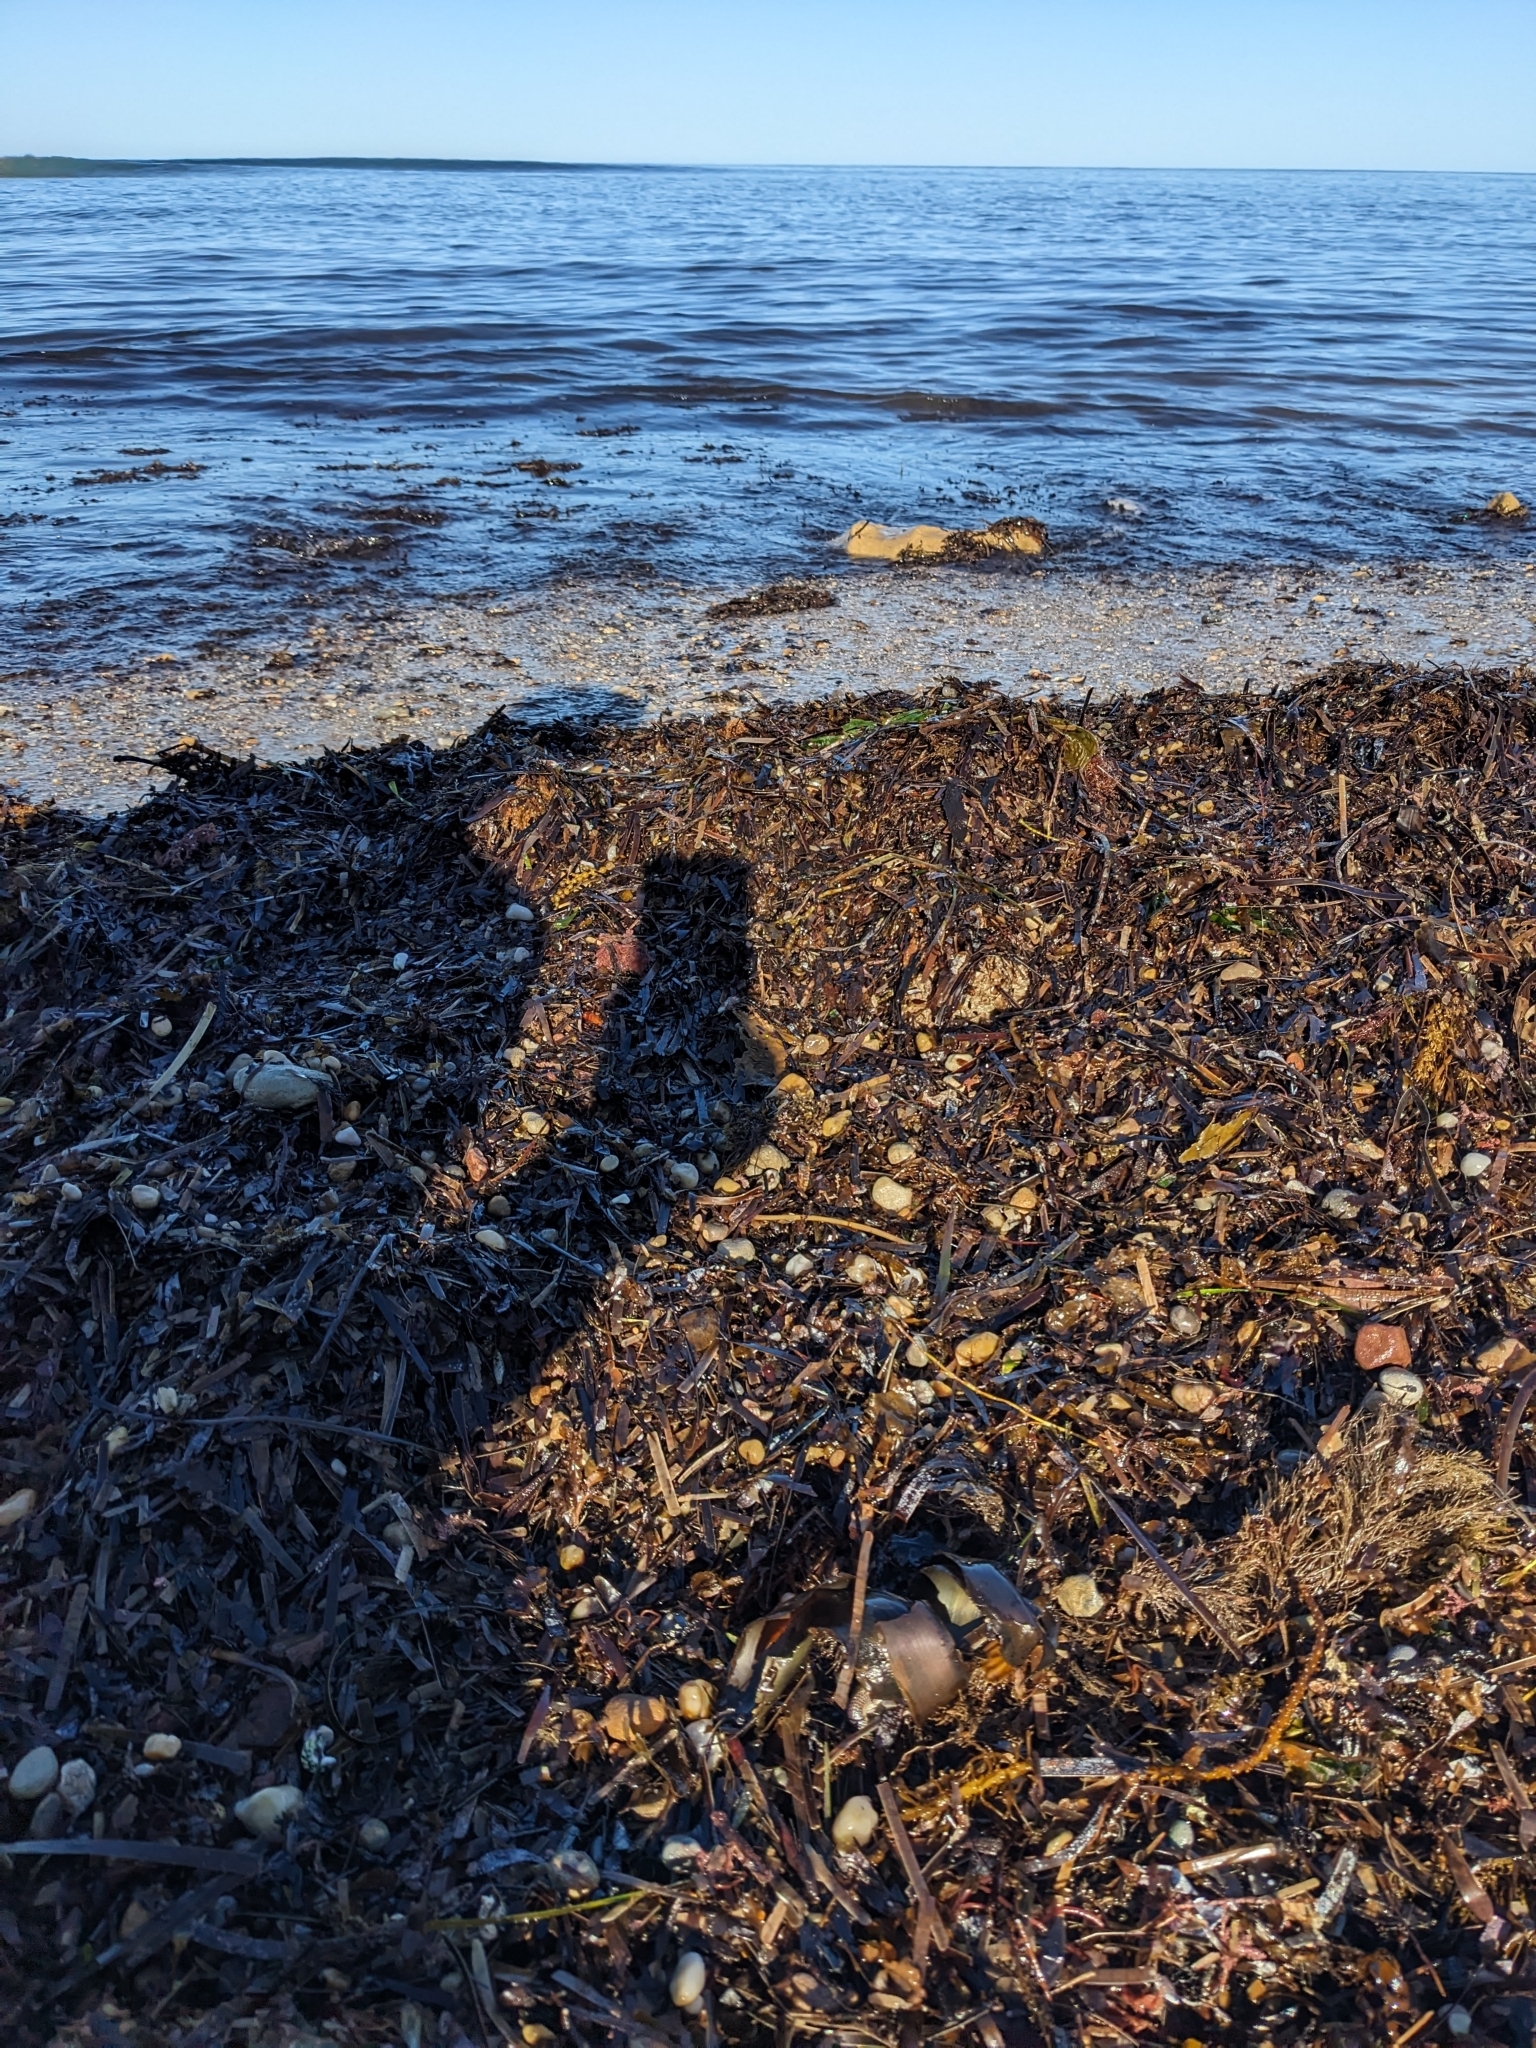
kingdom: Animalia
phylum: Chordata
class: Elasmobranchii
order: Heterodontiformes
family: Heterodontidae
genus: Heterodontus
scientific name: Heterodontus portusjacksoni
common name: Port jackson shark
